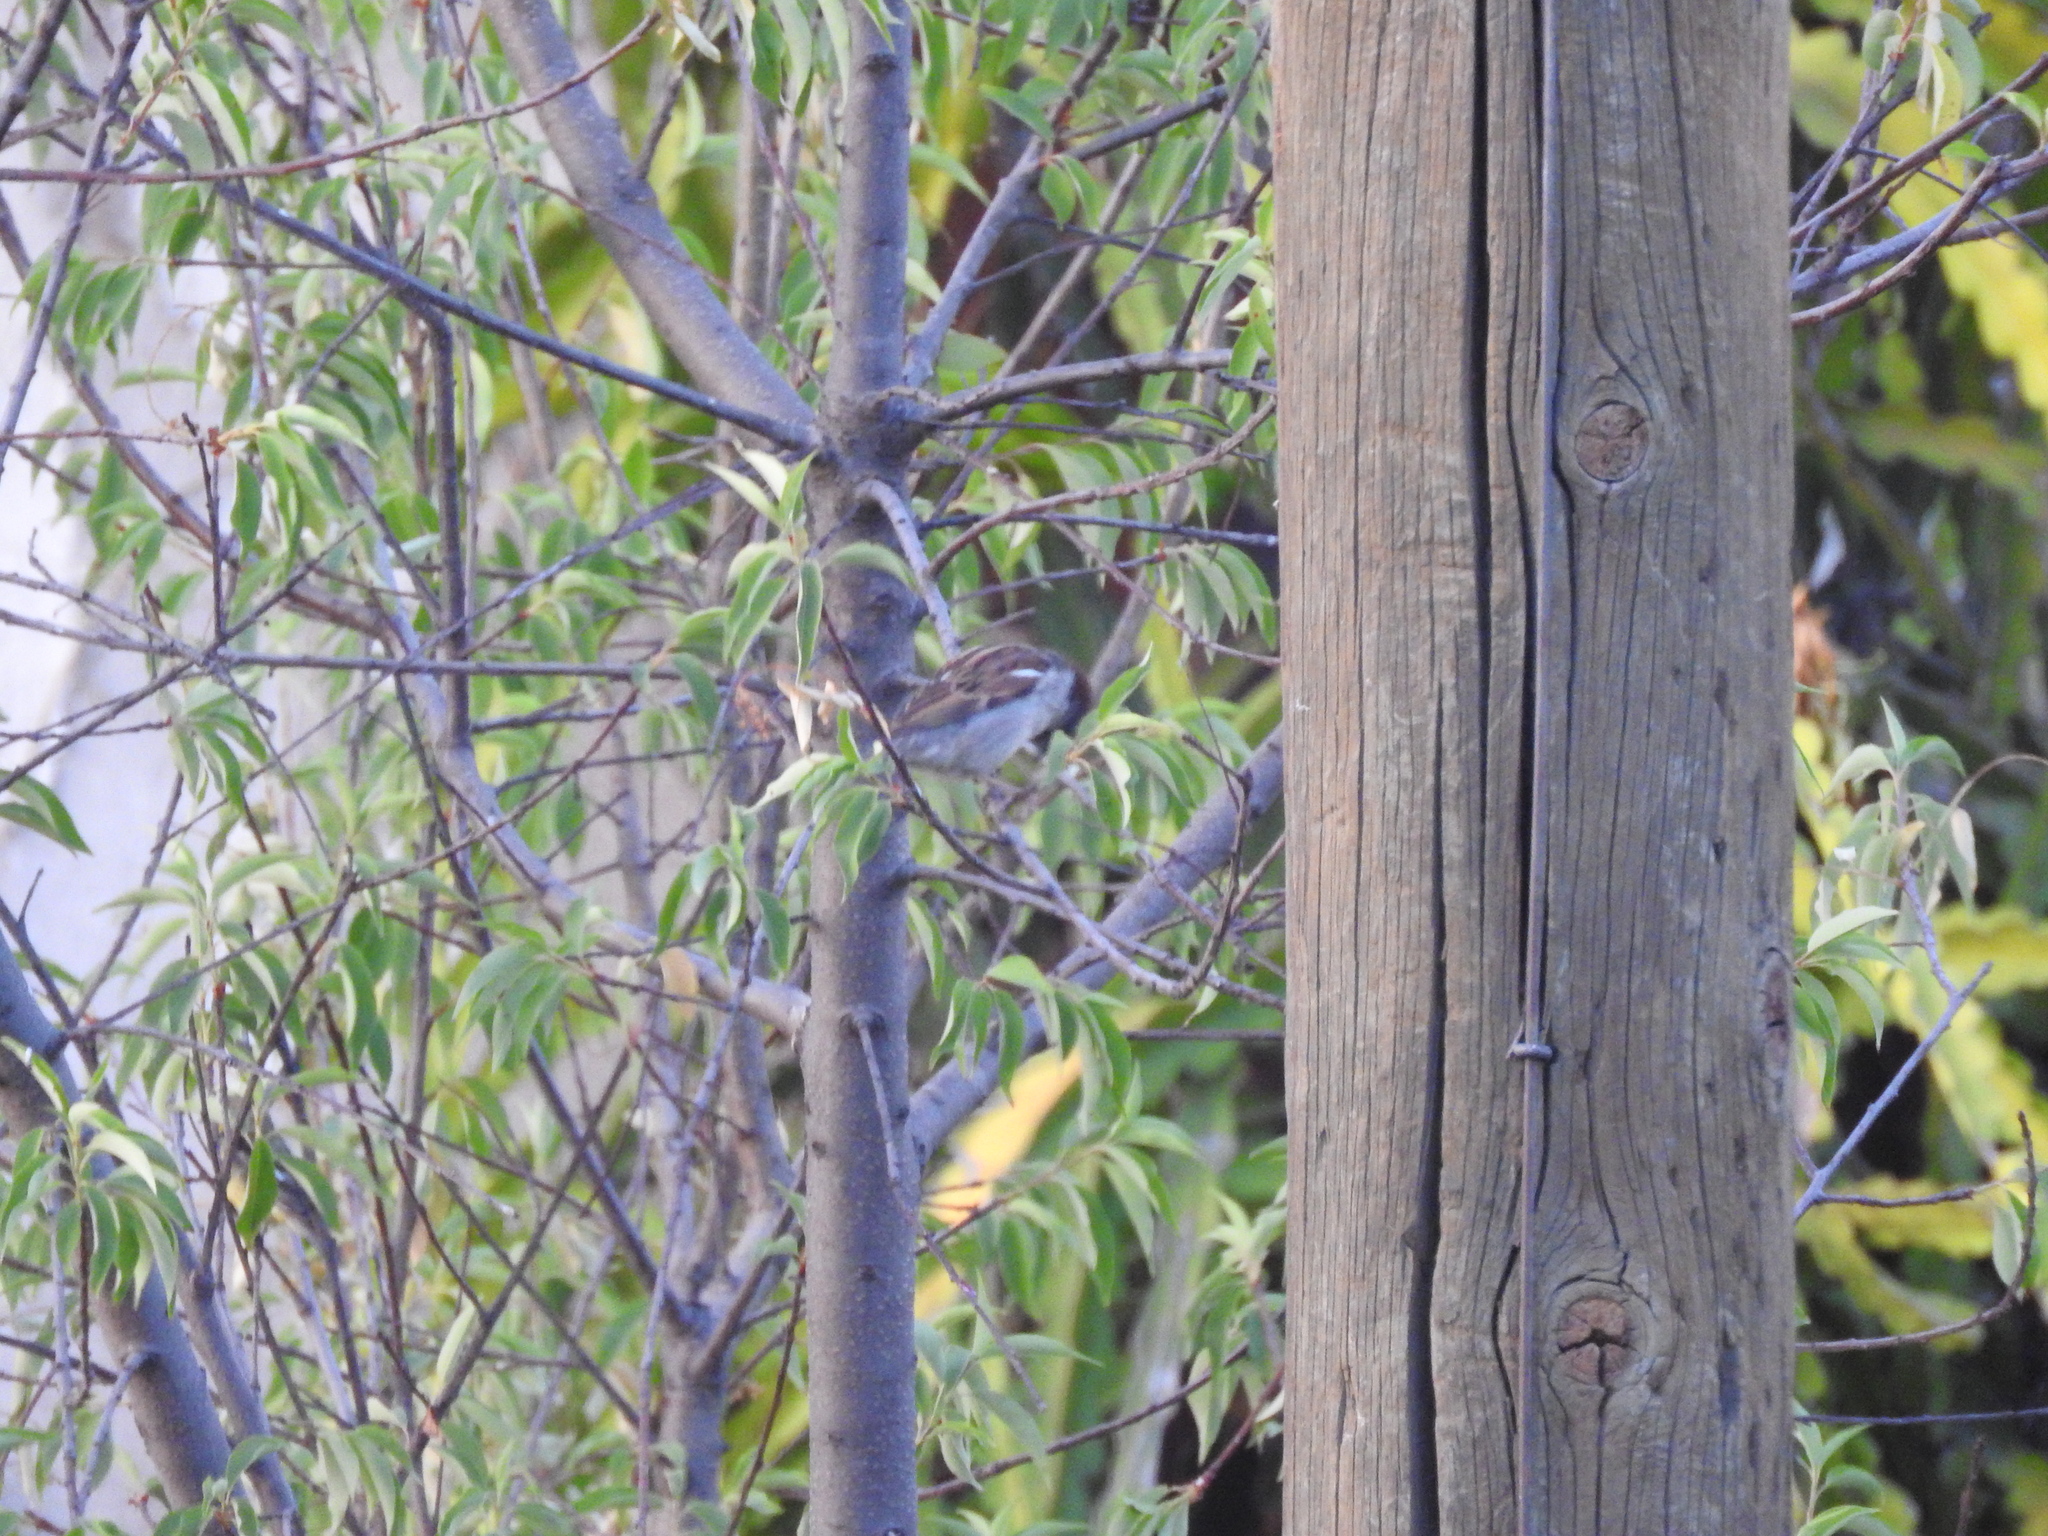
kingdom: Animalia
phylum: Chordata
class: Aves
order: Passeriformes
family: Passeridae
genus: Passer
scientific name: Passer domesticus
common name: House sparrow
